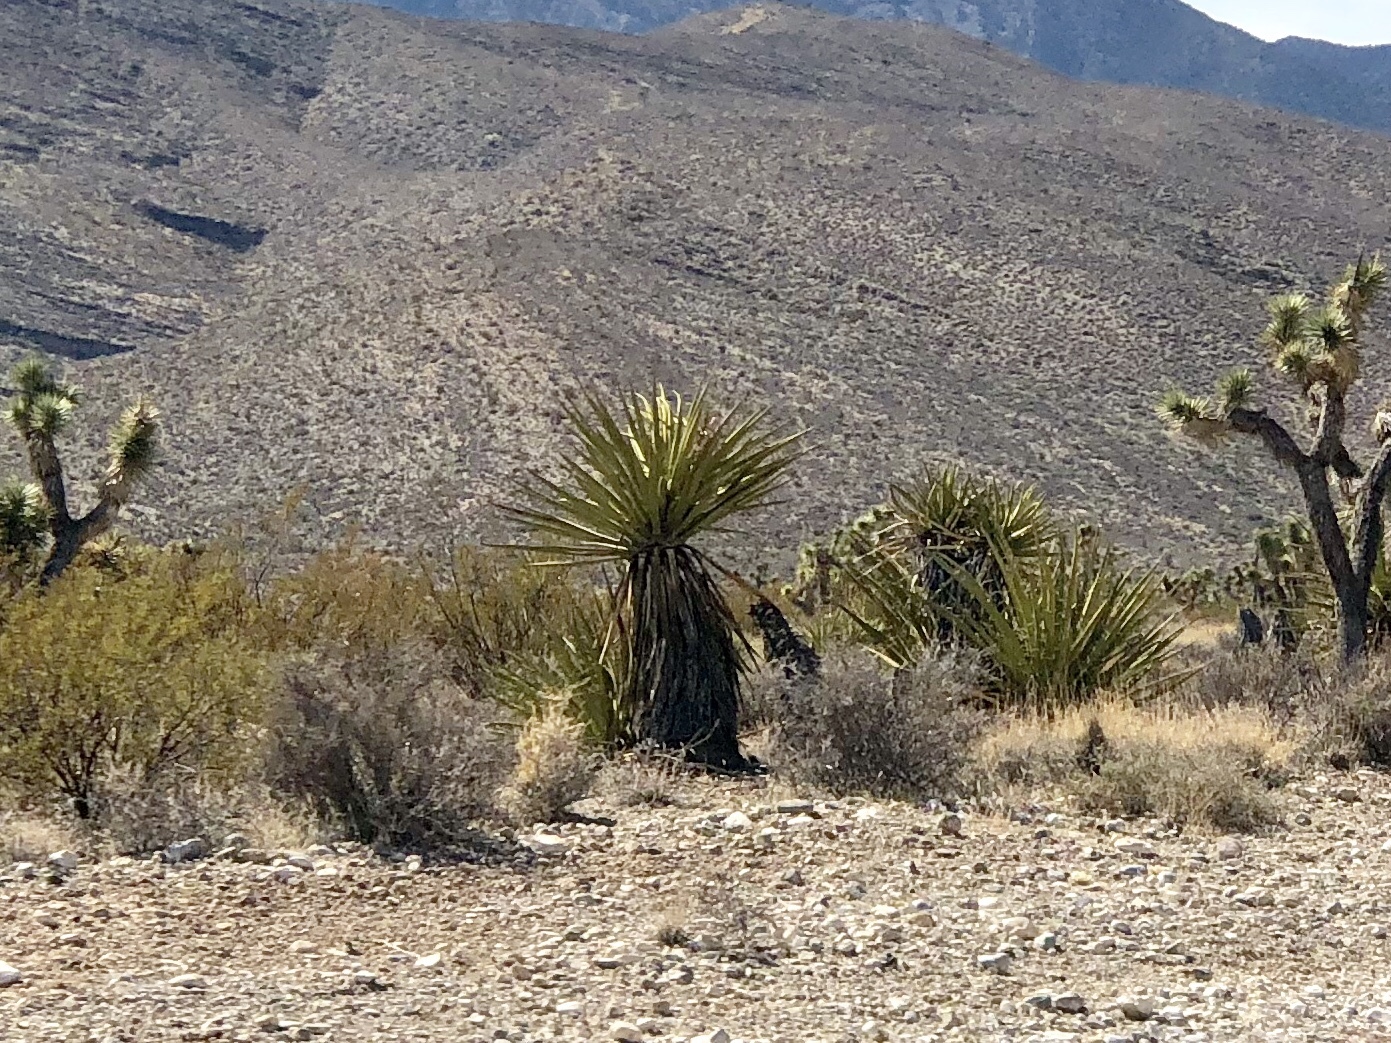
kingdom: Plantae
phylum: Tracheophyta
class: Liliopsida
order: Asparagales
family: Asparagaceae
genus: Yucca
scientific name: Yucca schidigera
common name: Mojave yucca
